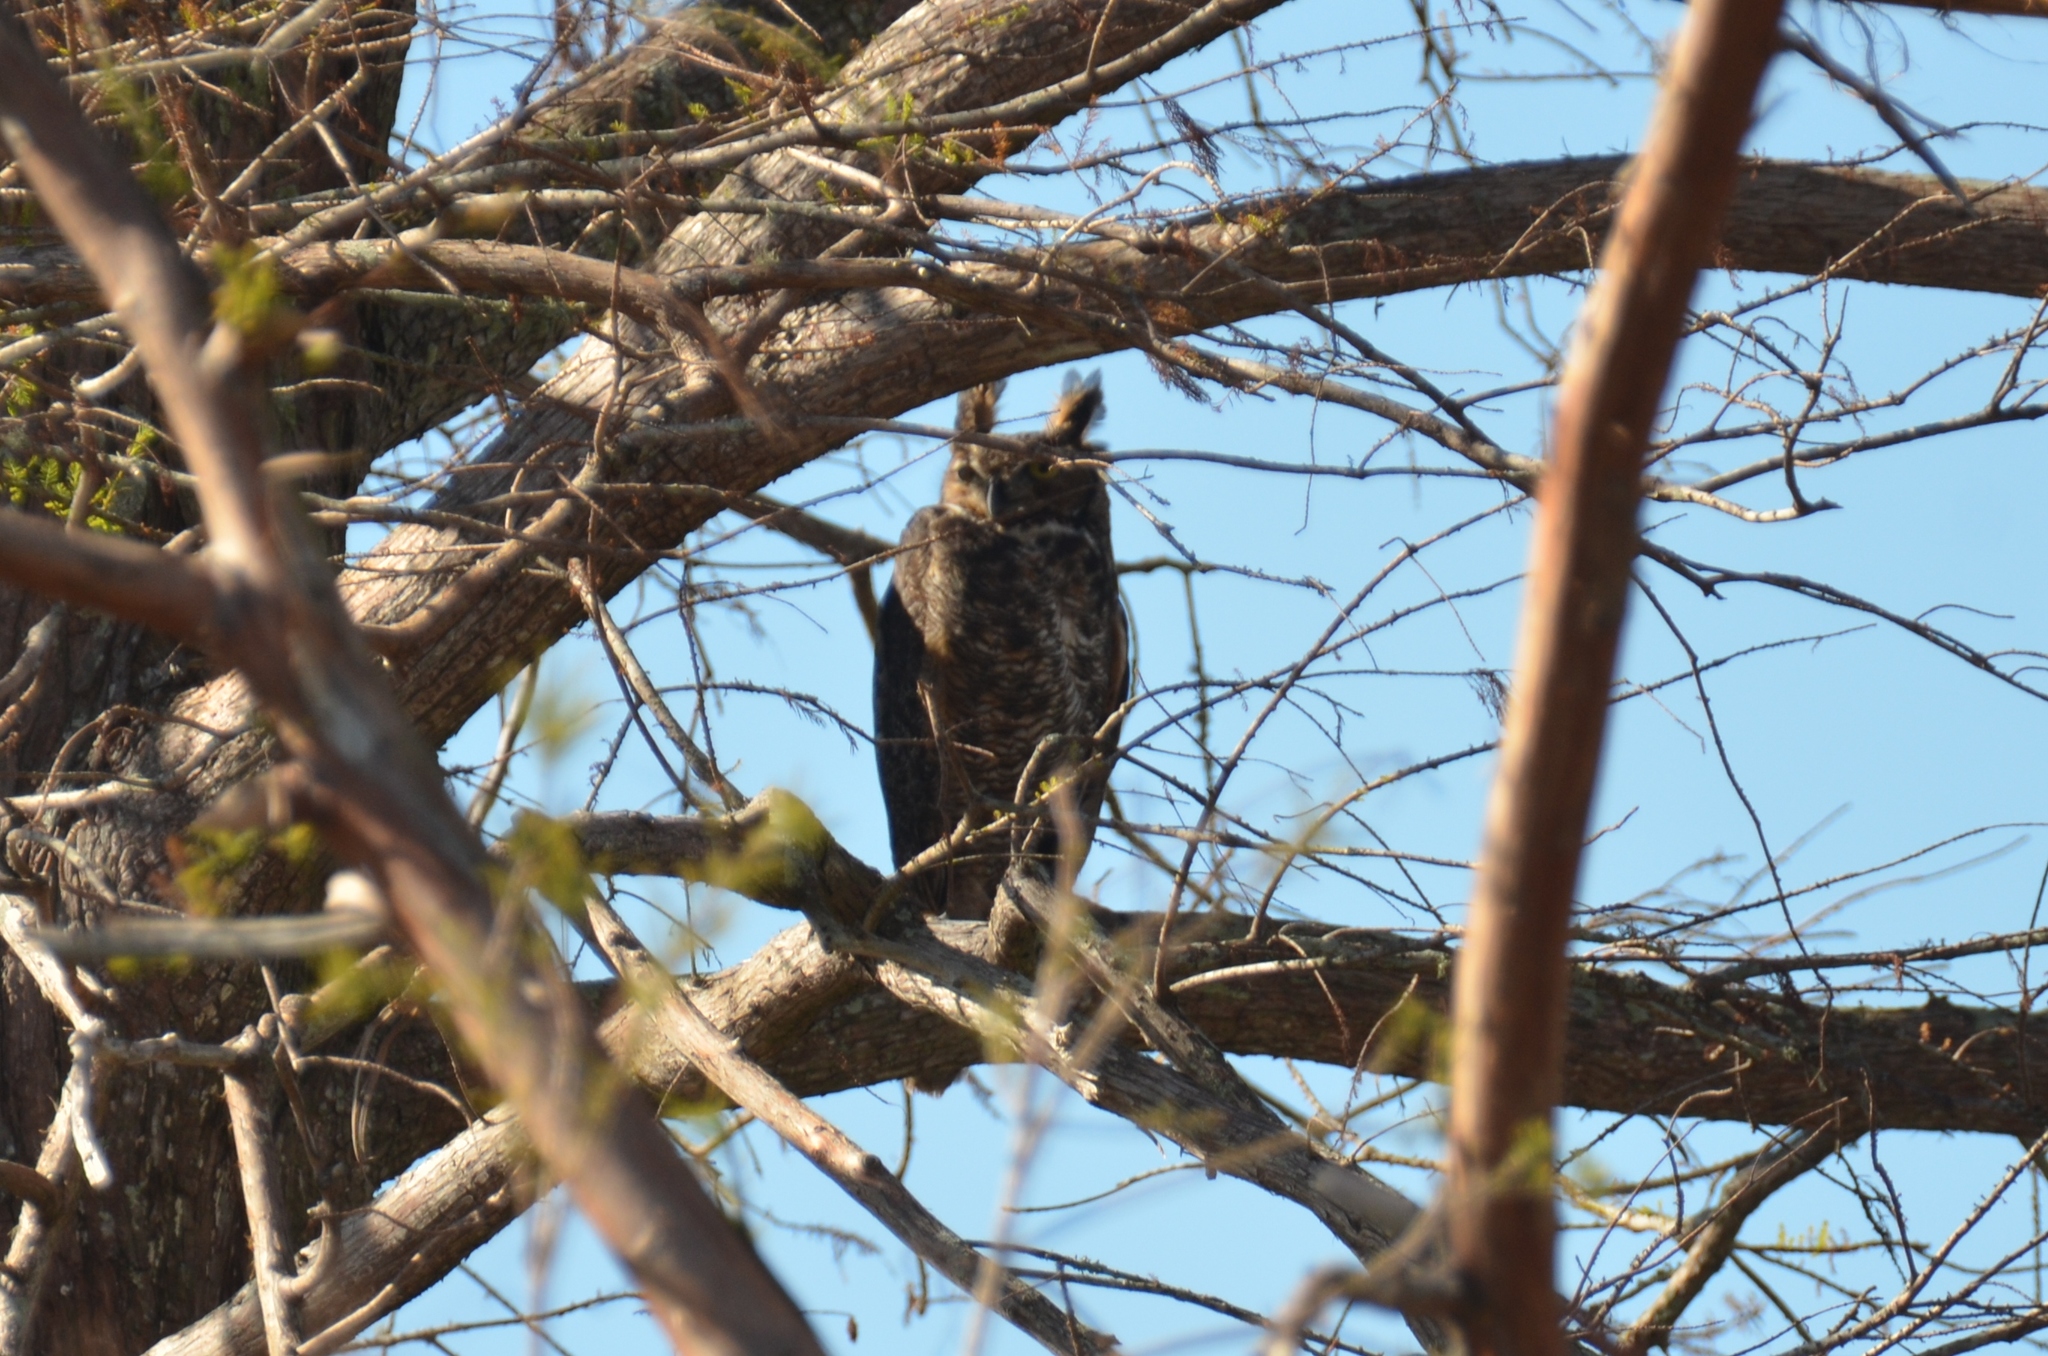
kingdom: Animalia
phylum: Chordata
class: Aves
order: Strigiformes
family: Strigidae
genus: Bubo
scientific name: Bubo virginianus
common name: Great horned owl
